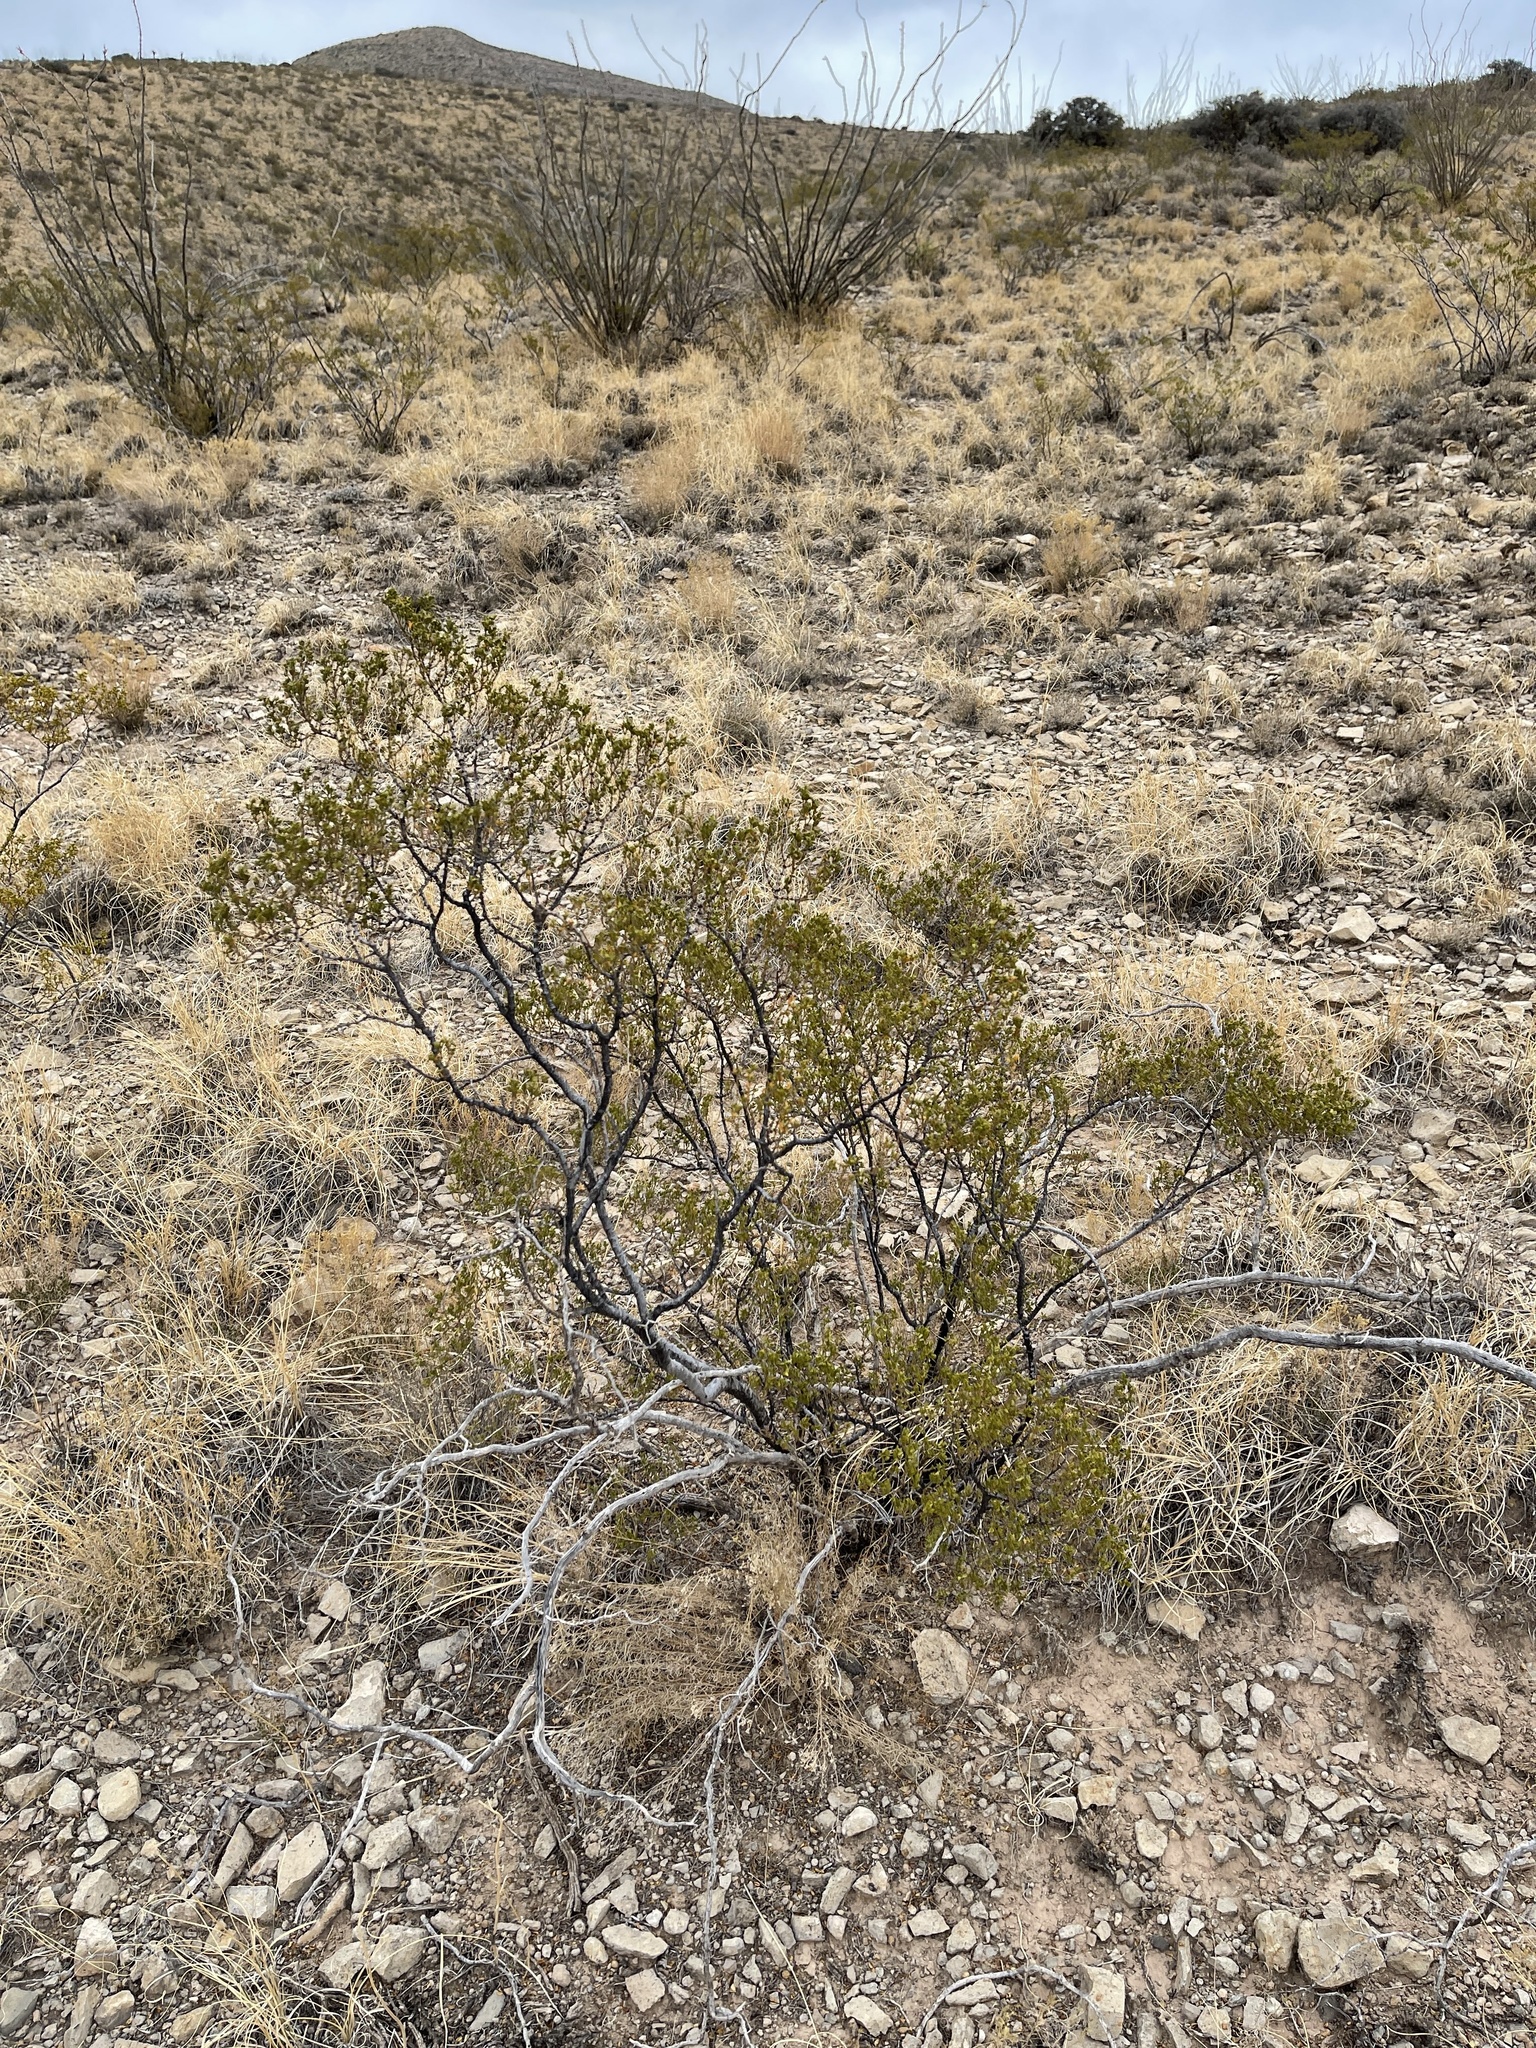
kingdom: Plantae
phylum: Tracheophyta
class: Magnoliopsida
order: Zygophyllales
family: Zygophyllaceae
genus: Larrea
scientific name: Larrea tridentata
